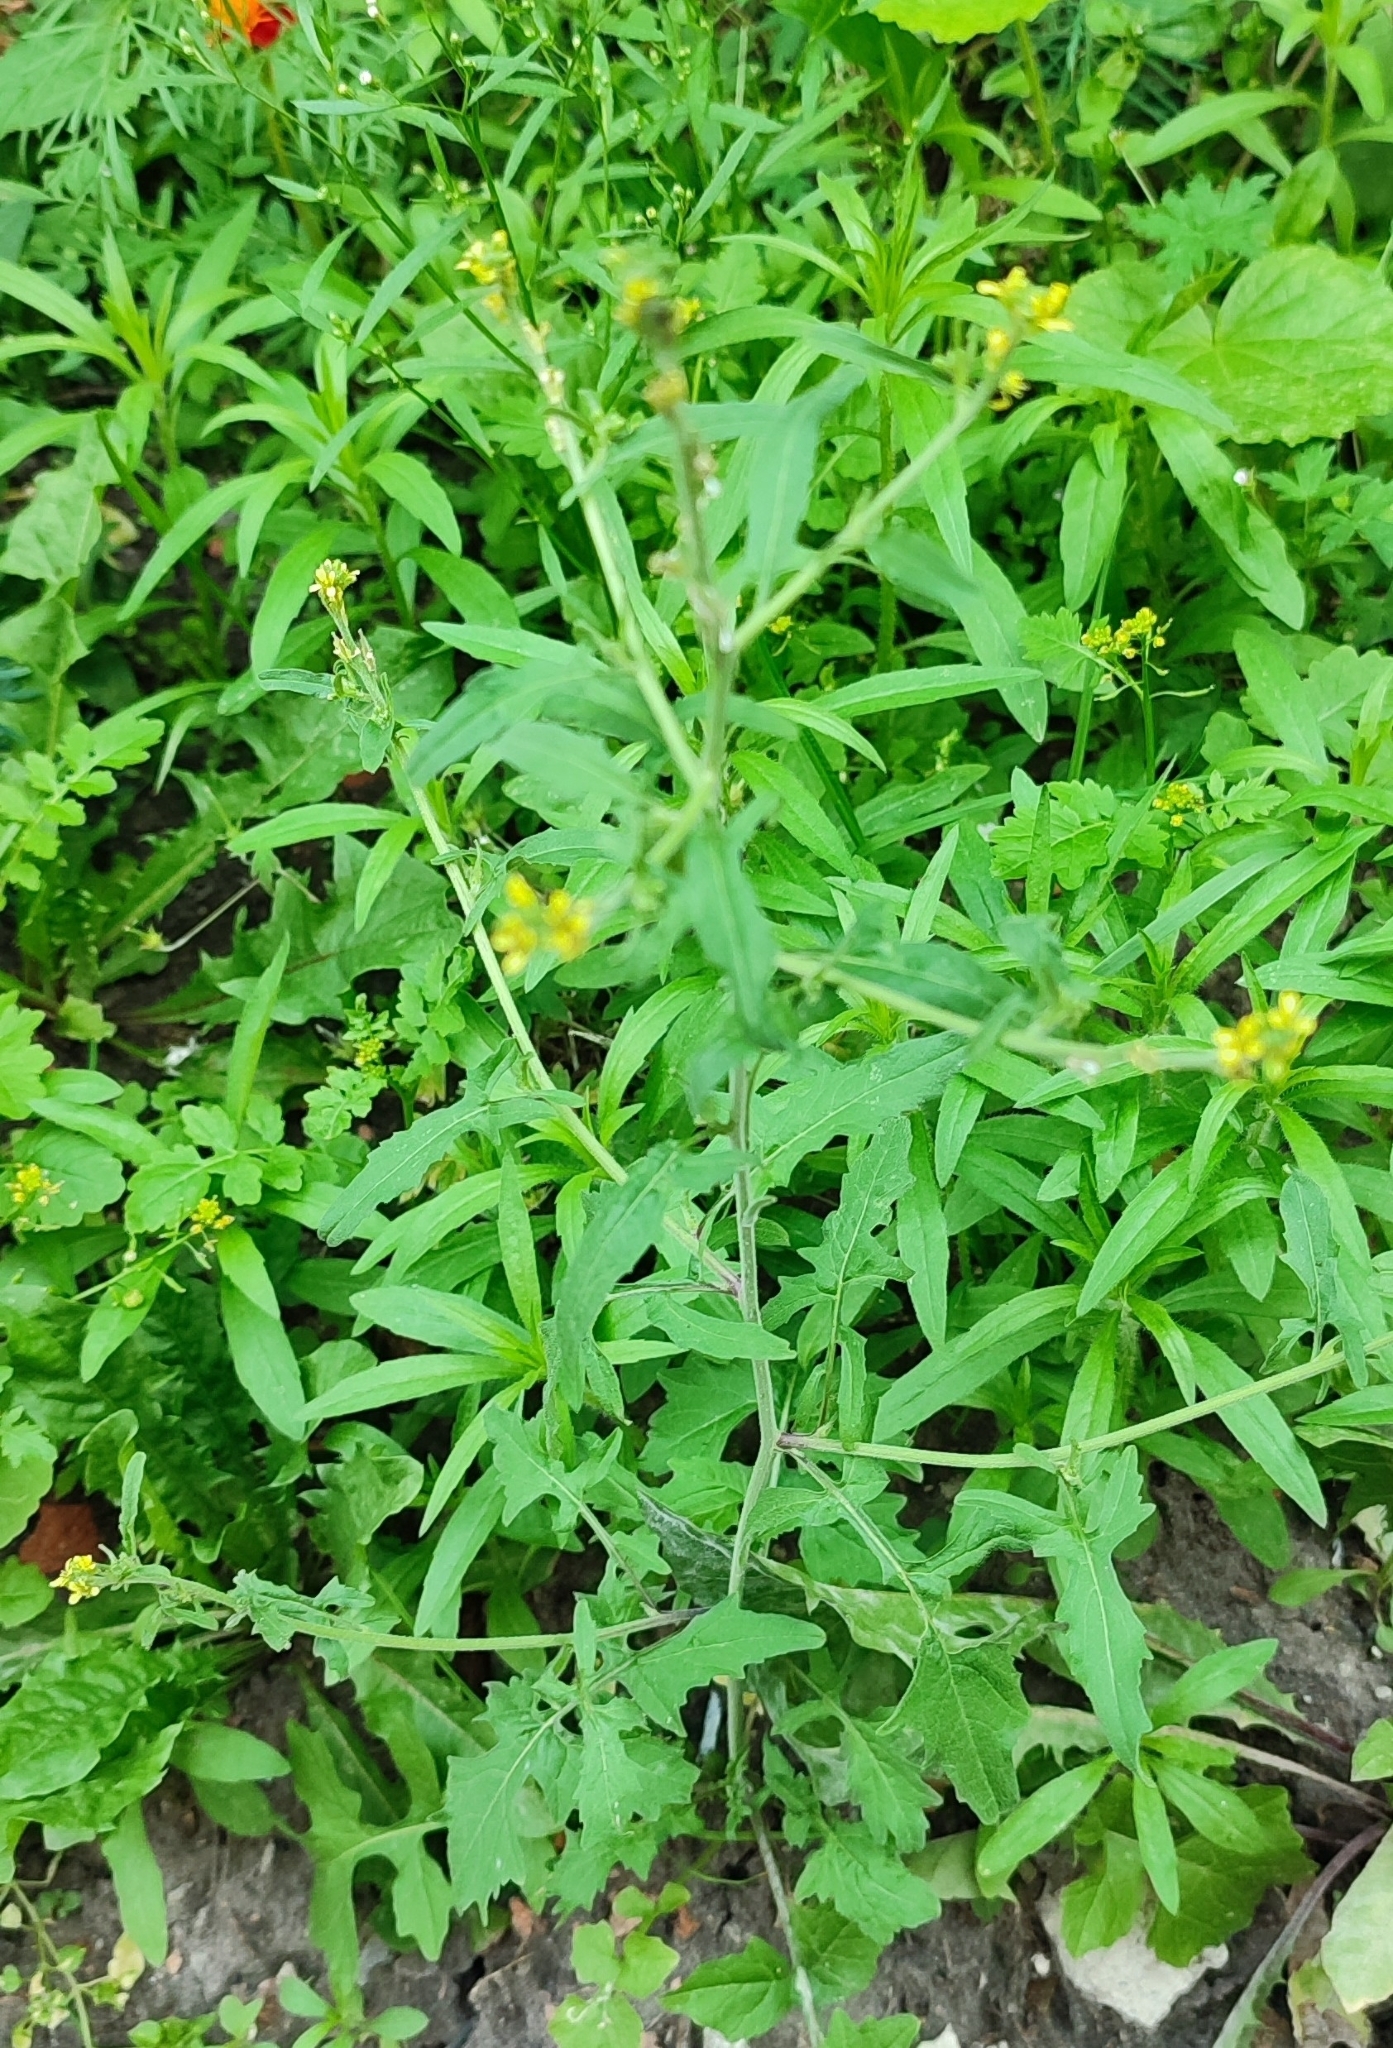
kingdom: Plantae
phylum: Tracheophyta
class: Magnoliopsida
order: Brassicales
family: Brassicaceae
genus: Sisymbrium
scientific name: Sisymbrium officinale
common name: Hedge mustard
